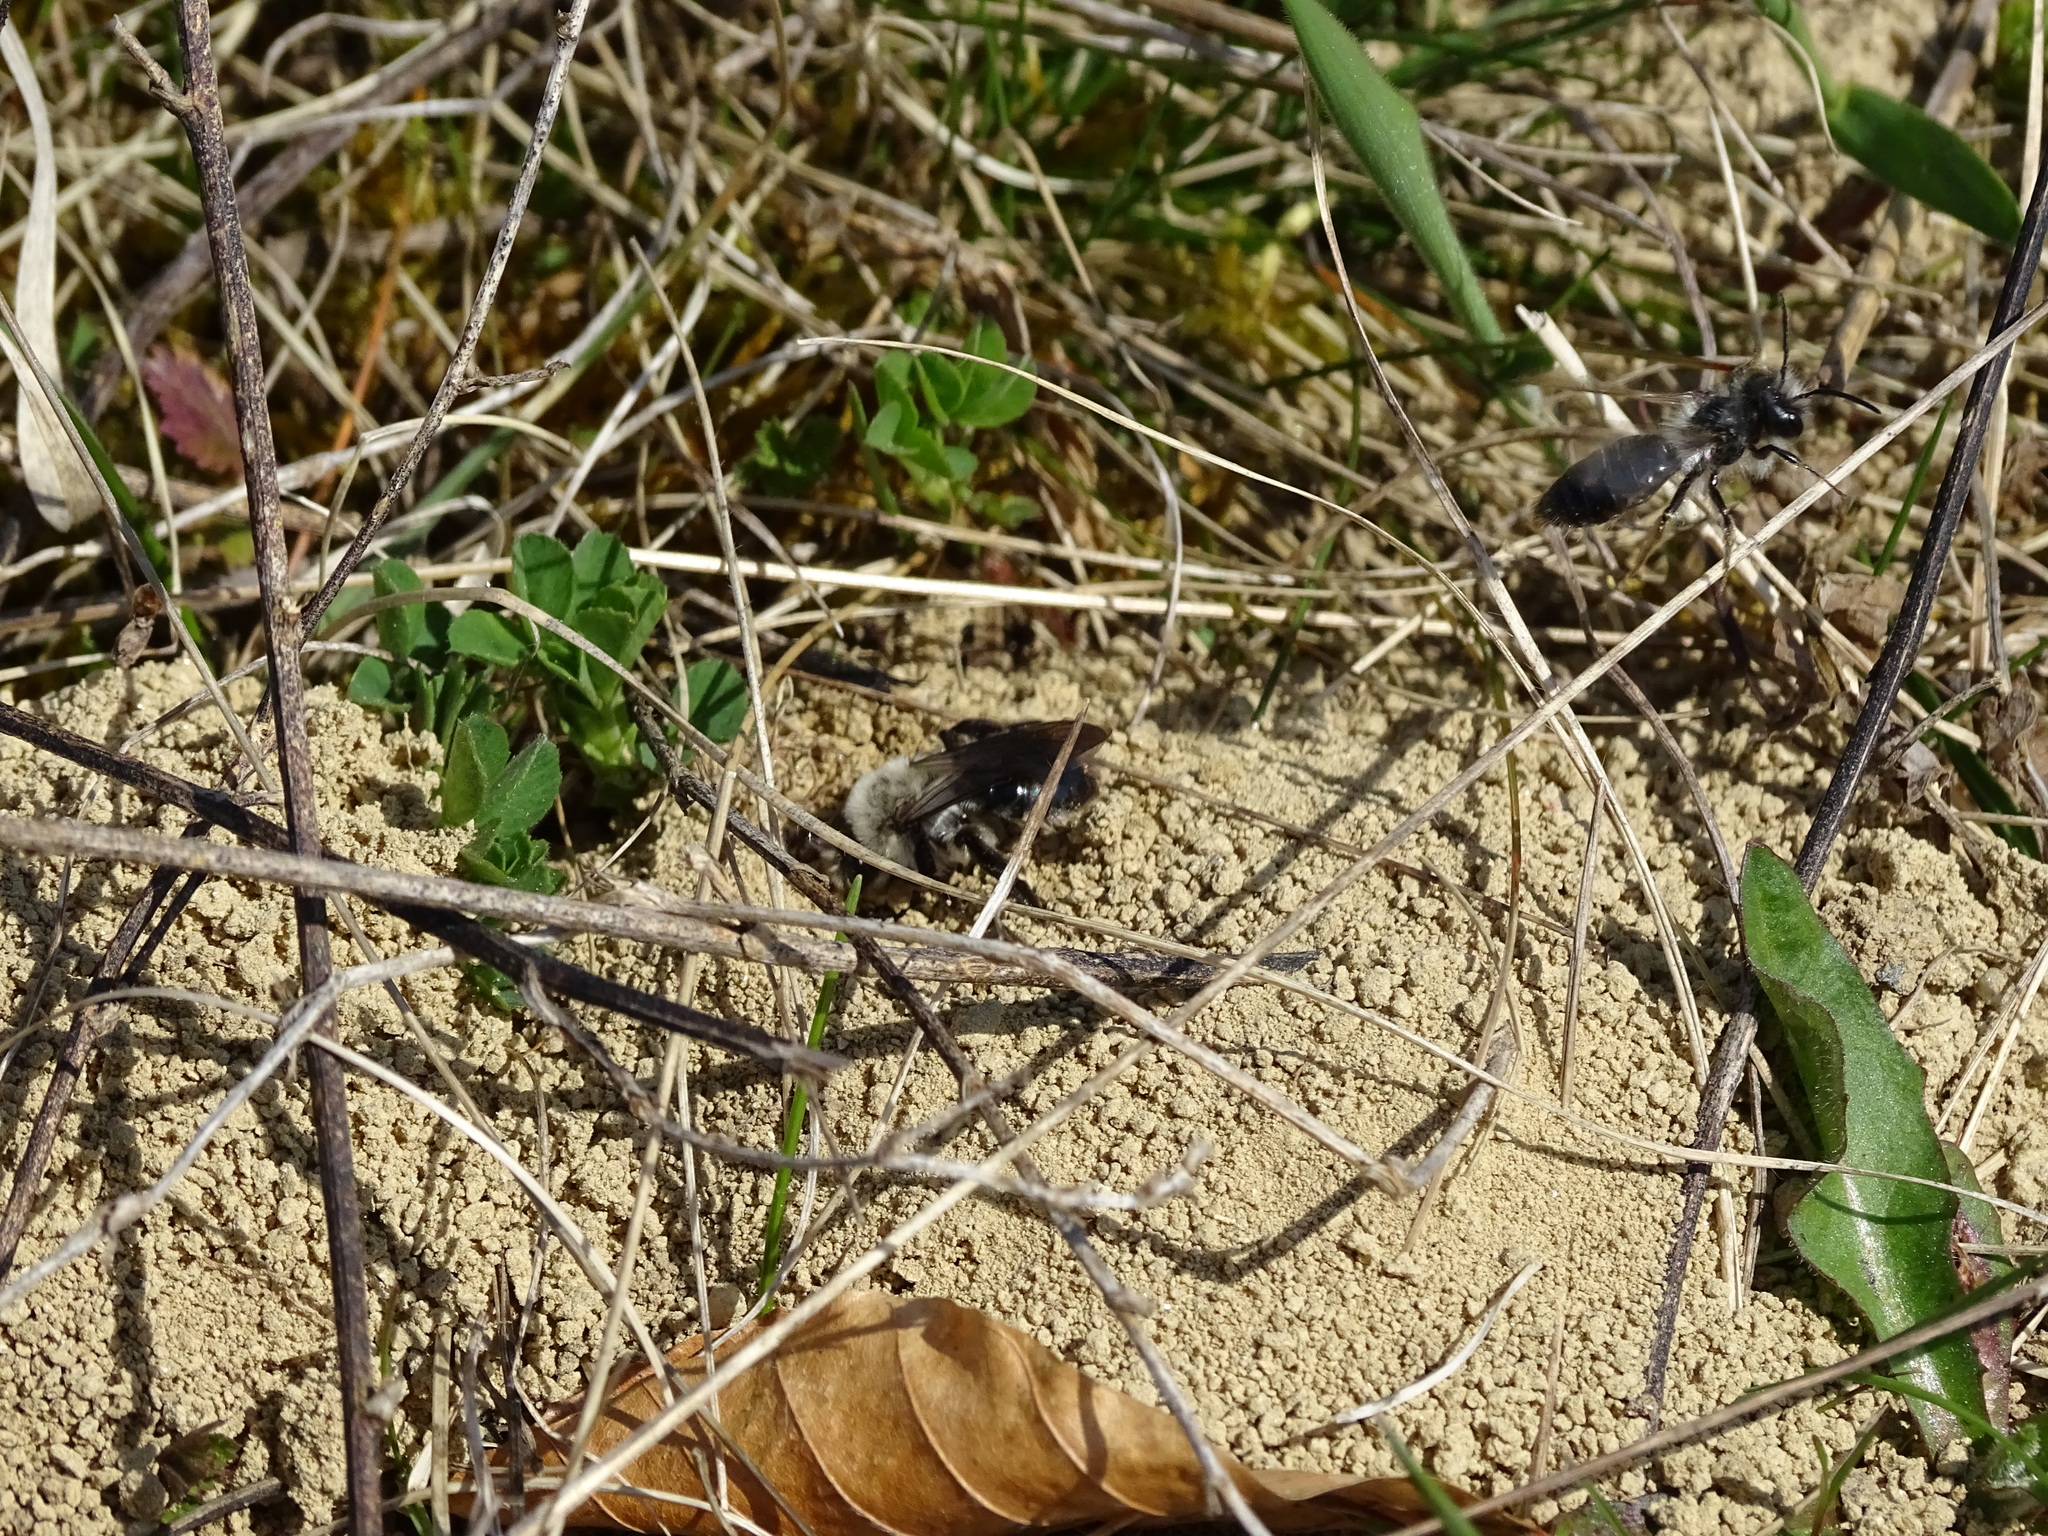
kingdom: Animalia
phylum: Arthropoda
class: Insecta
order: Hymenoptera
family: Andrenidae
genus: Andrena
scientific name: Andrena vaga
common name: Grey-backed mining bee
